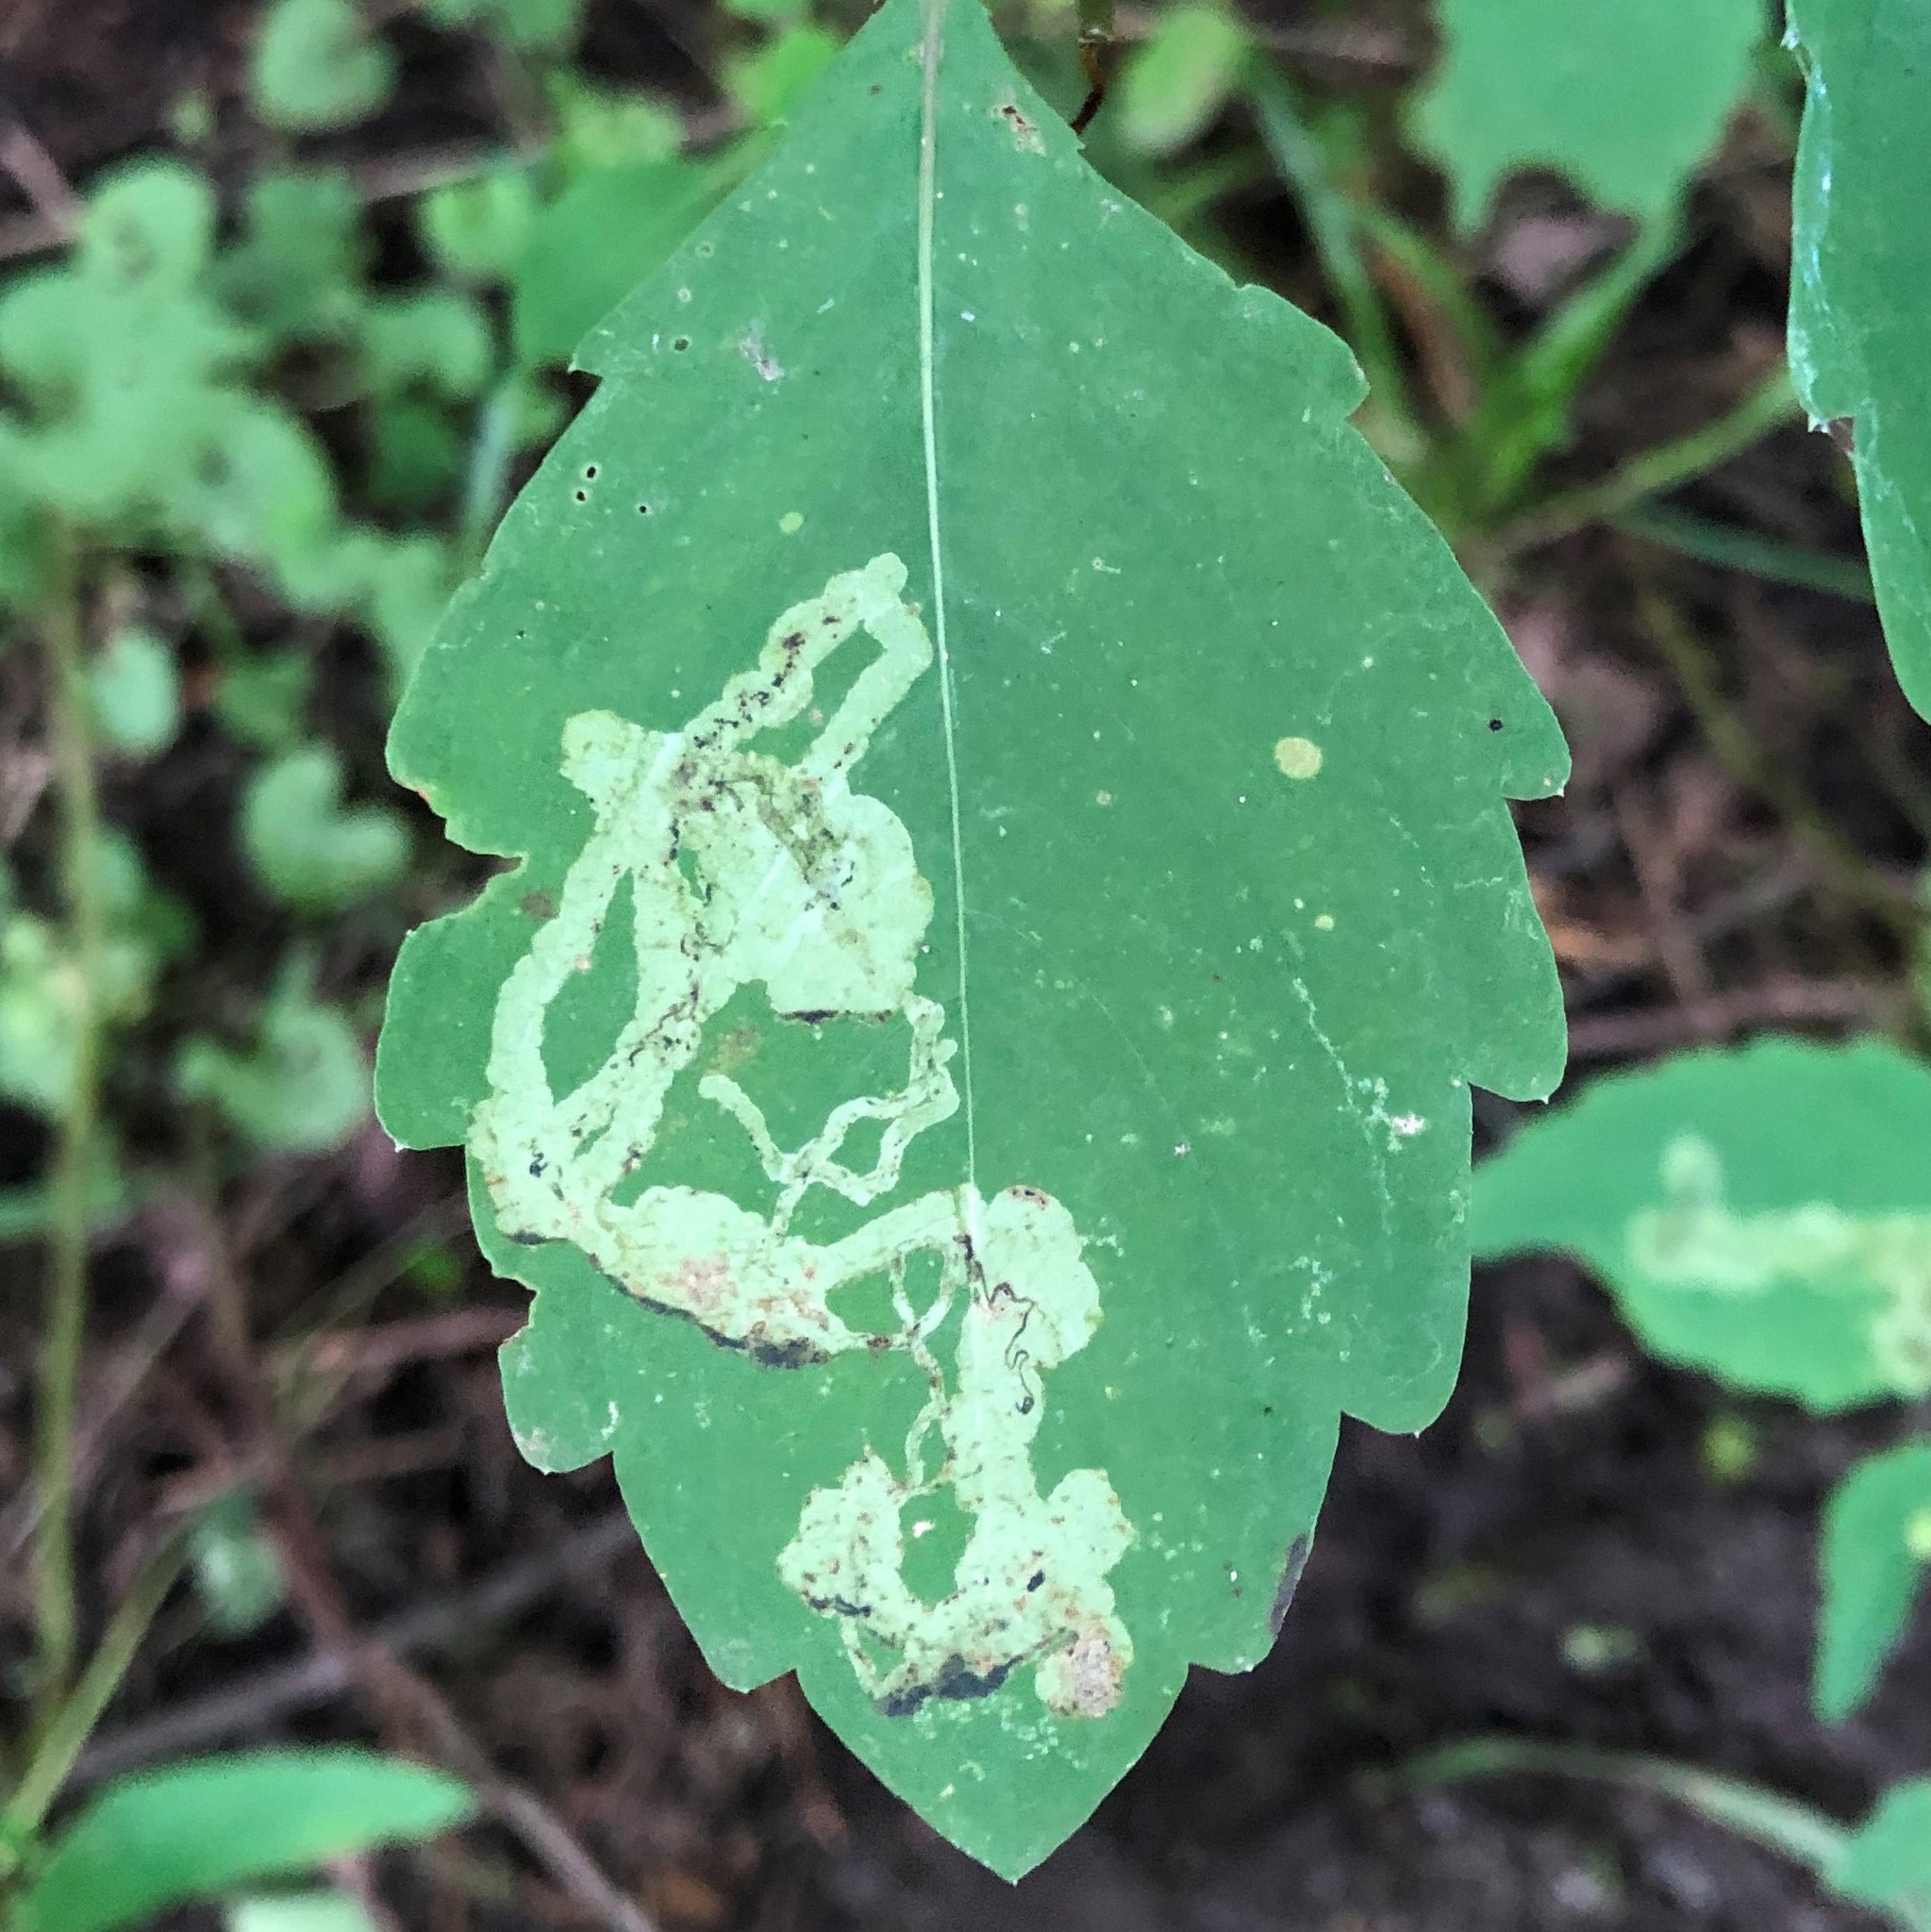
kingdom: Animalia
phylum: Arthropoda
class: Insecta
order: Diptera
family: Agromyzidae
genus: Phytoliriomyza
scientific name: Phytoliriomyza melampyga
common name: Jewelweed leaf-miner fly
